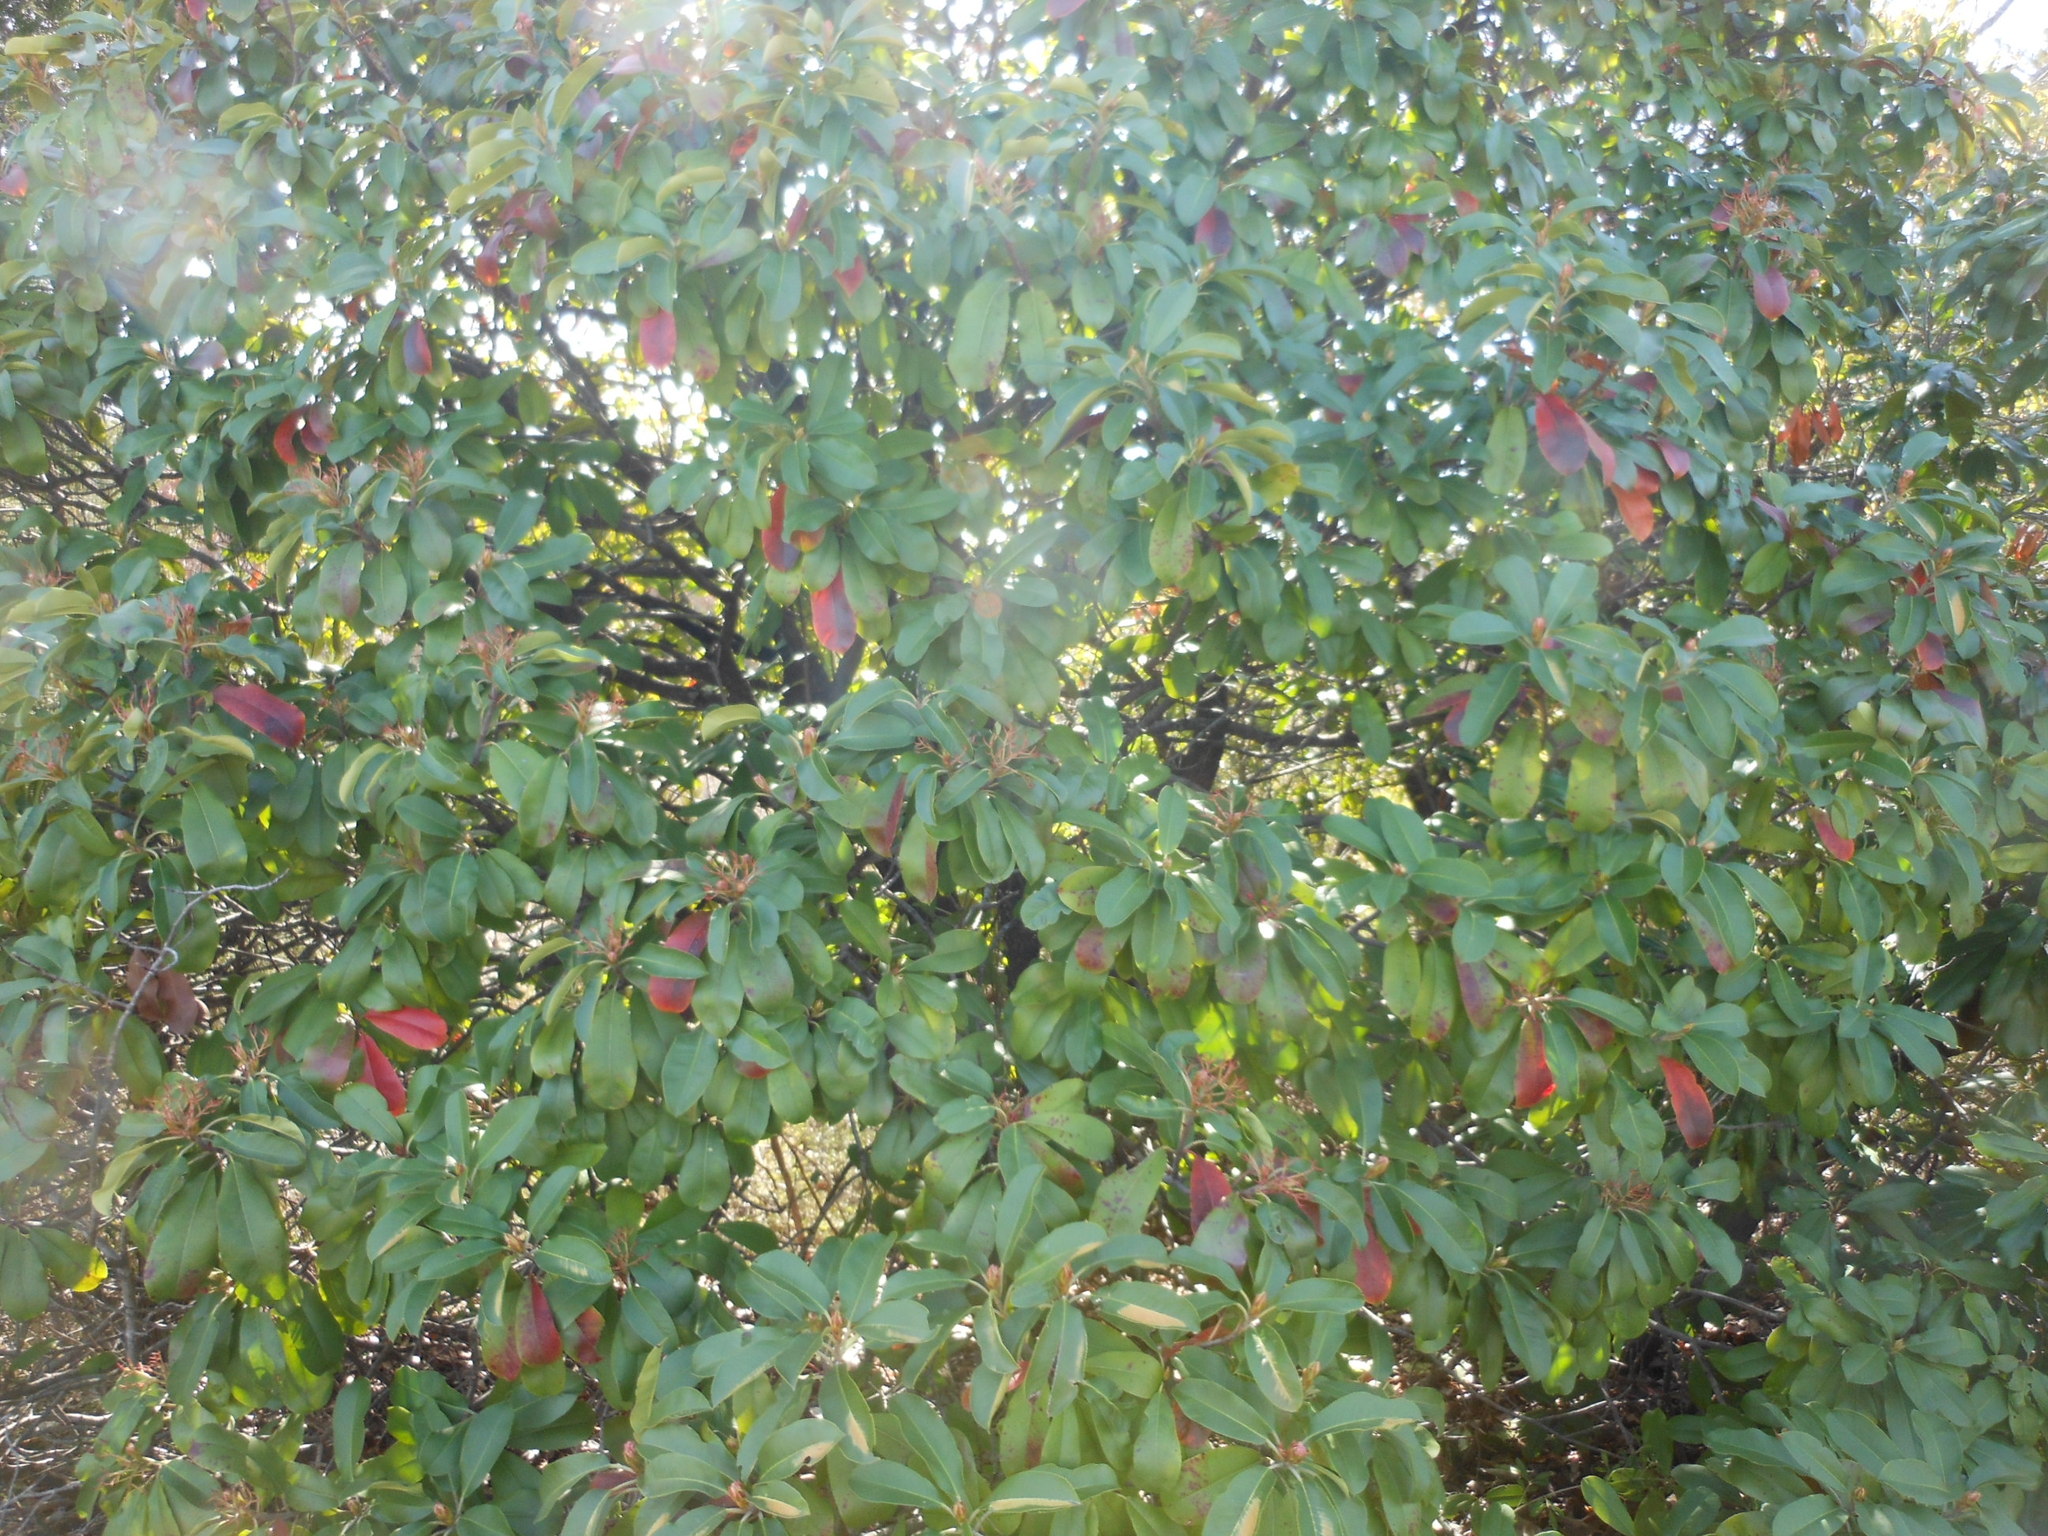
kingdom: Plantae
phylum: Tracheophyta
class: Magnoliopsida
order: Rosales
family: Rosaceae
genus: Photinia
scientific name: Photinia serratifolia
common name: Taiwanese photinia
